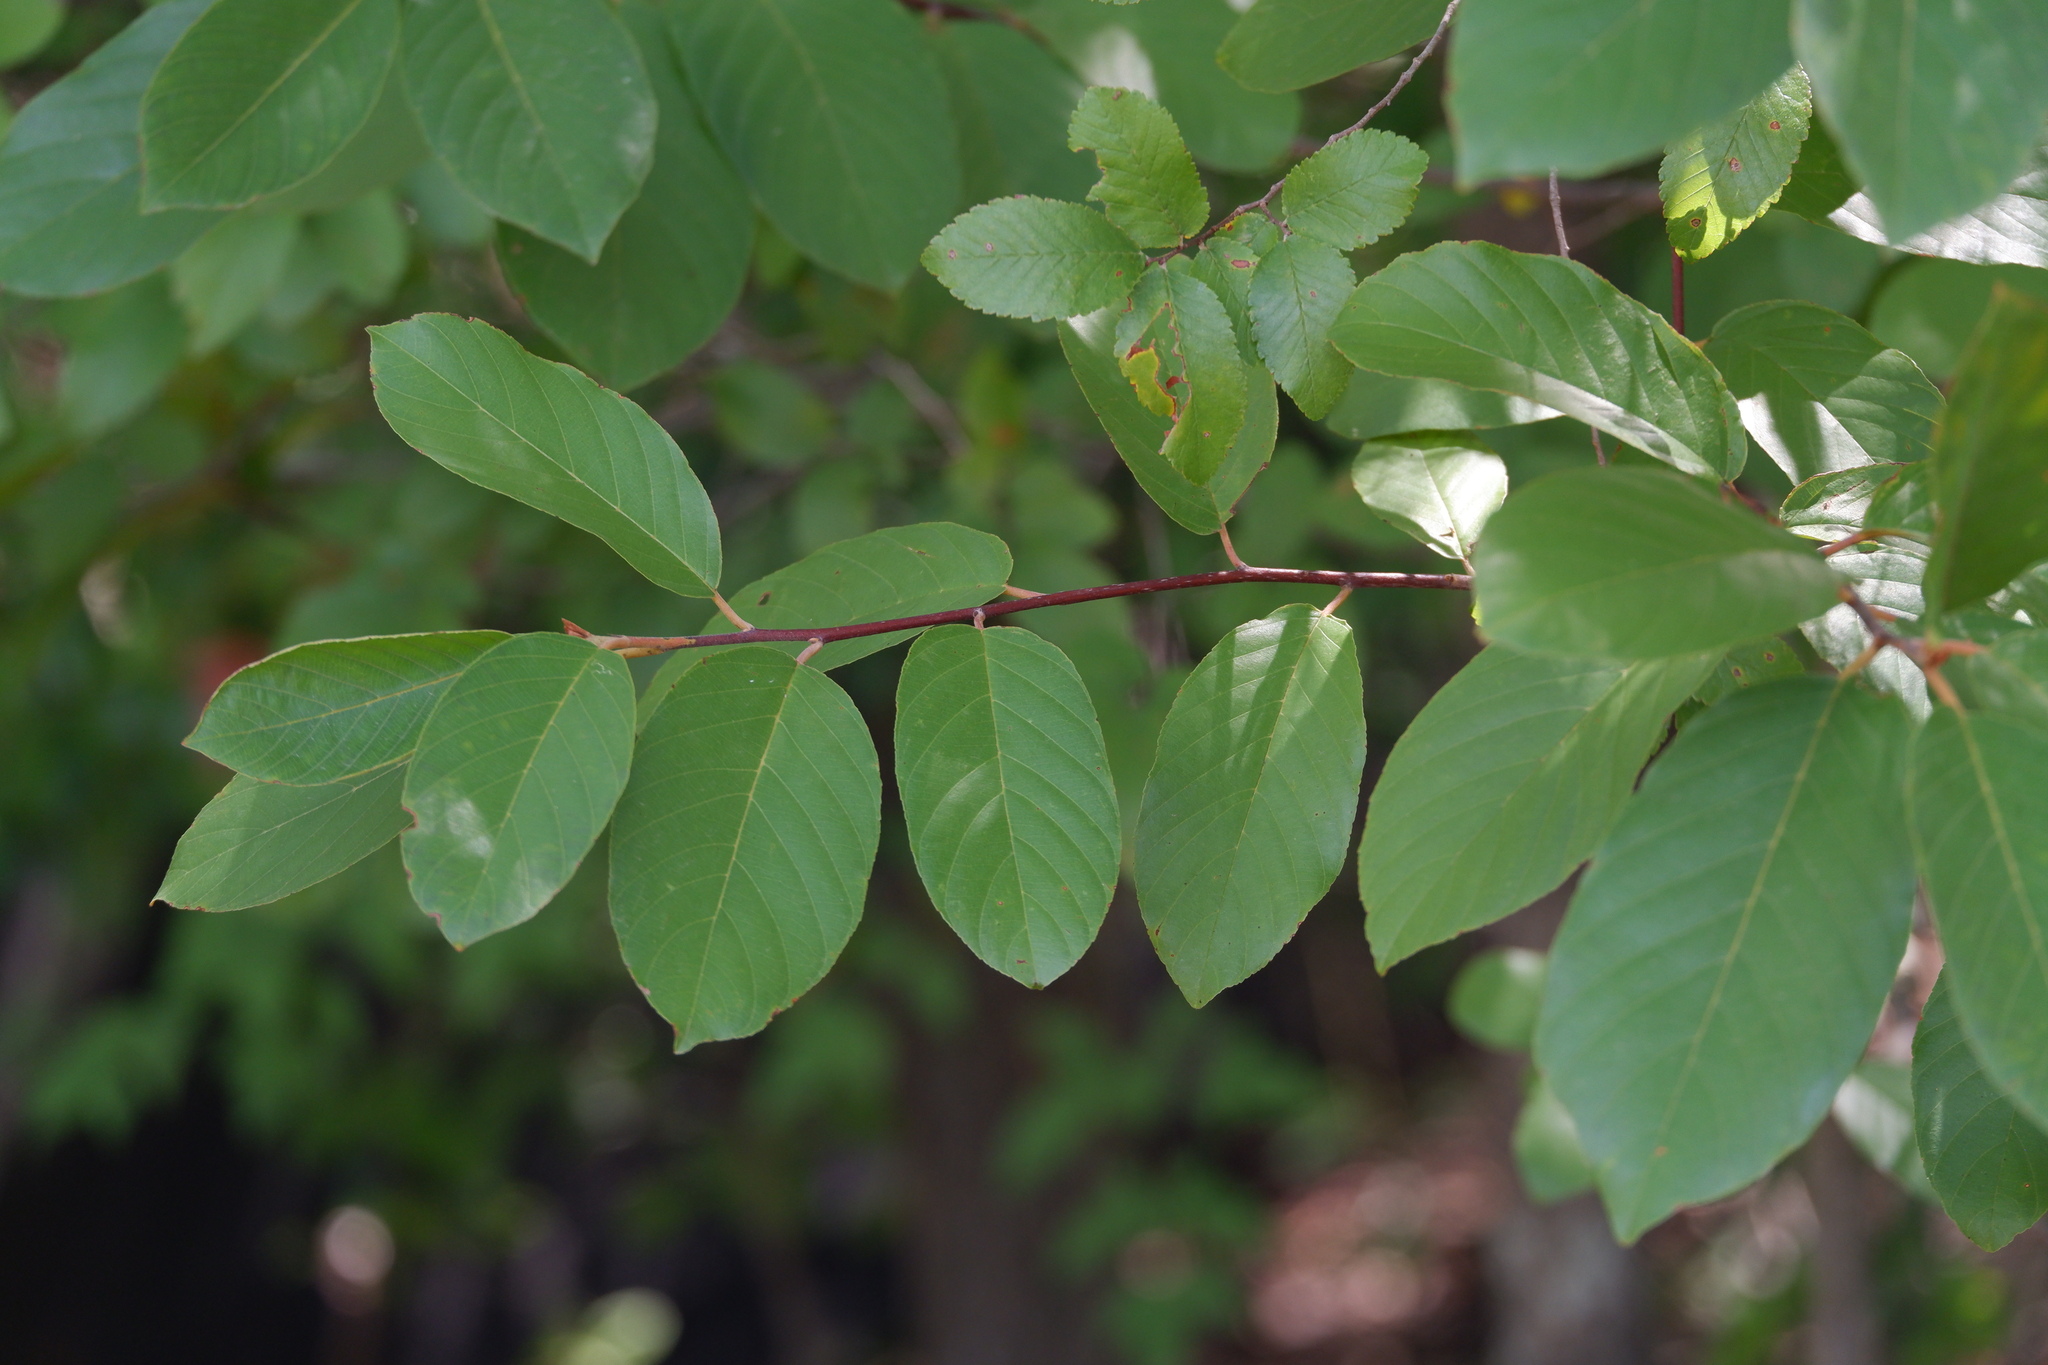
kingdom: Plantae
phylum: Tracheophyta
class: Magnoliopsida
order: Rosales
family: Rhamnaceae
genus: Frangula
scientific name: Frangula caroliniana
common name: Carolina buckthorn
